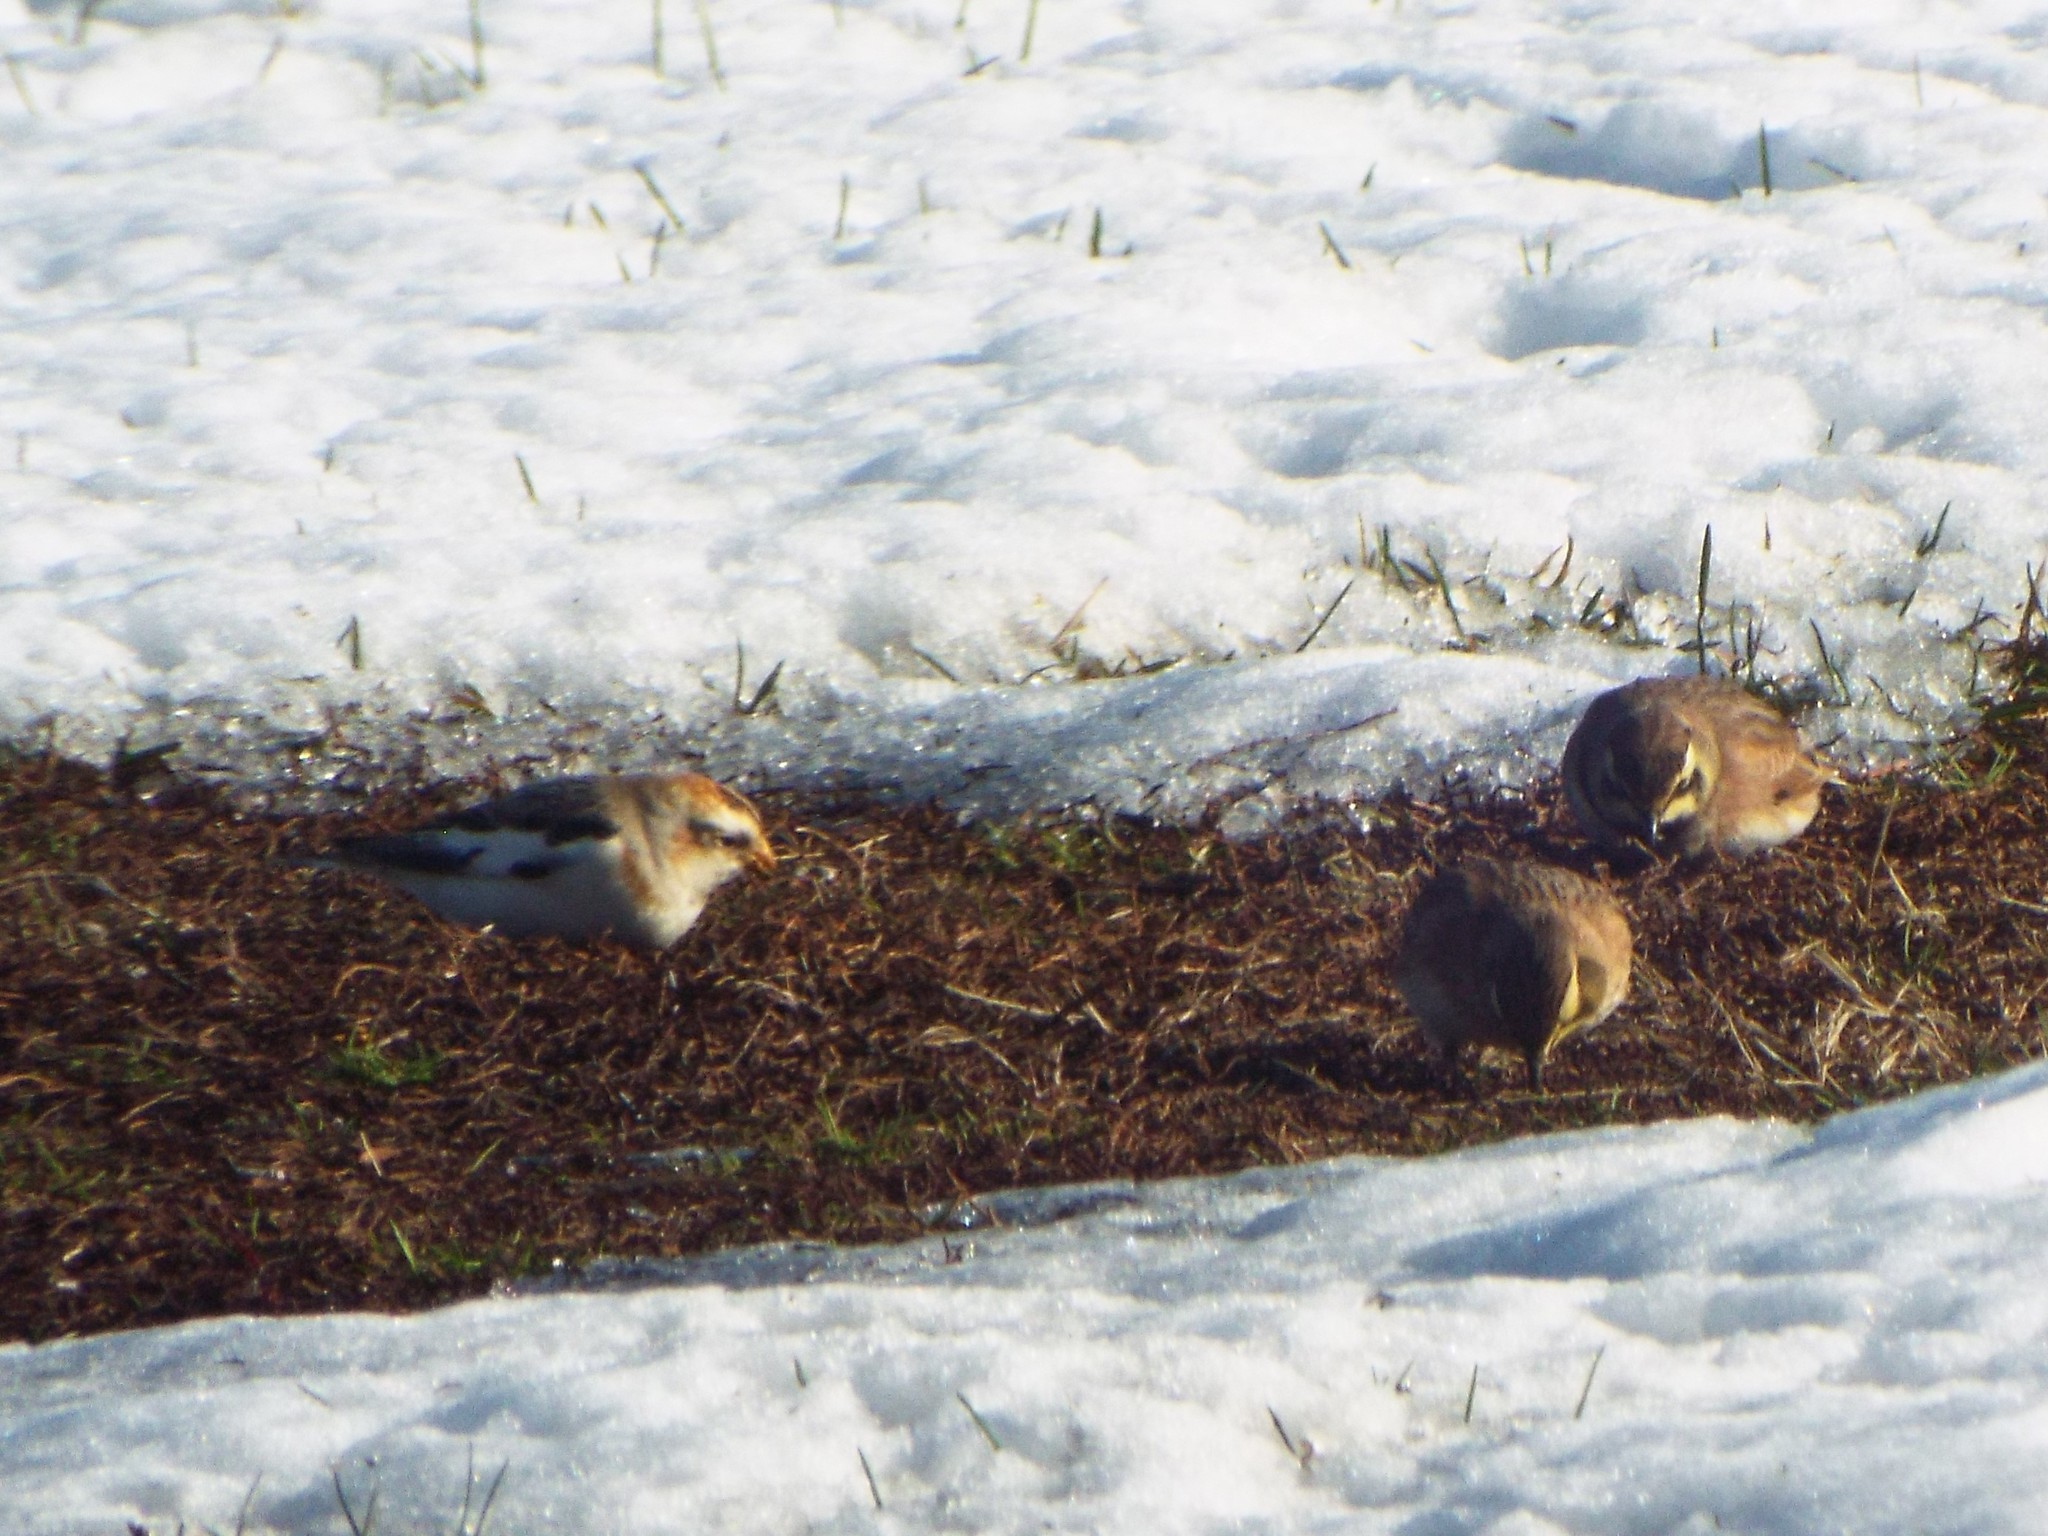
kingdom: Animalia
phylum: Chordata
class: Aves
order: Passeriformes
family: Calcariidae
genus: Plectrophenax
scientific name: Plectrophenax nivalis
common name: Snow bunting
